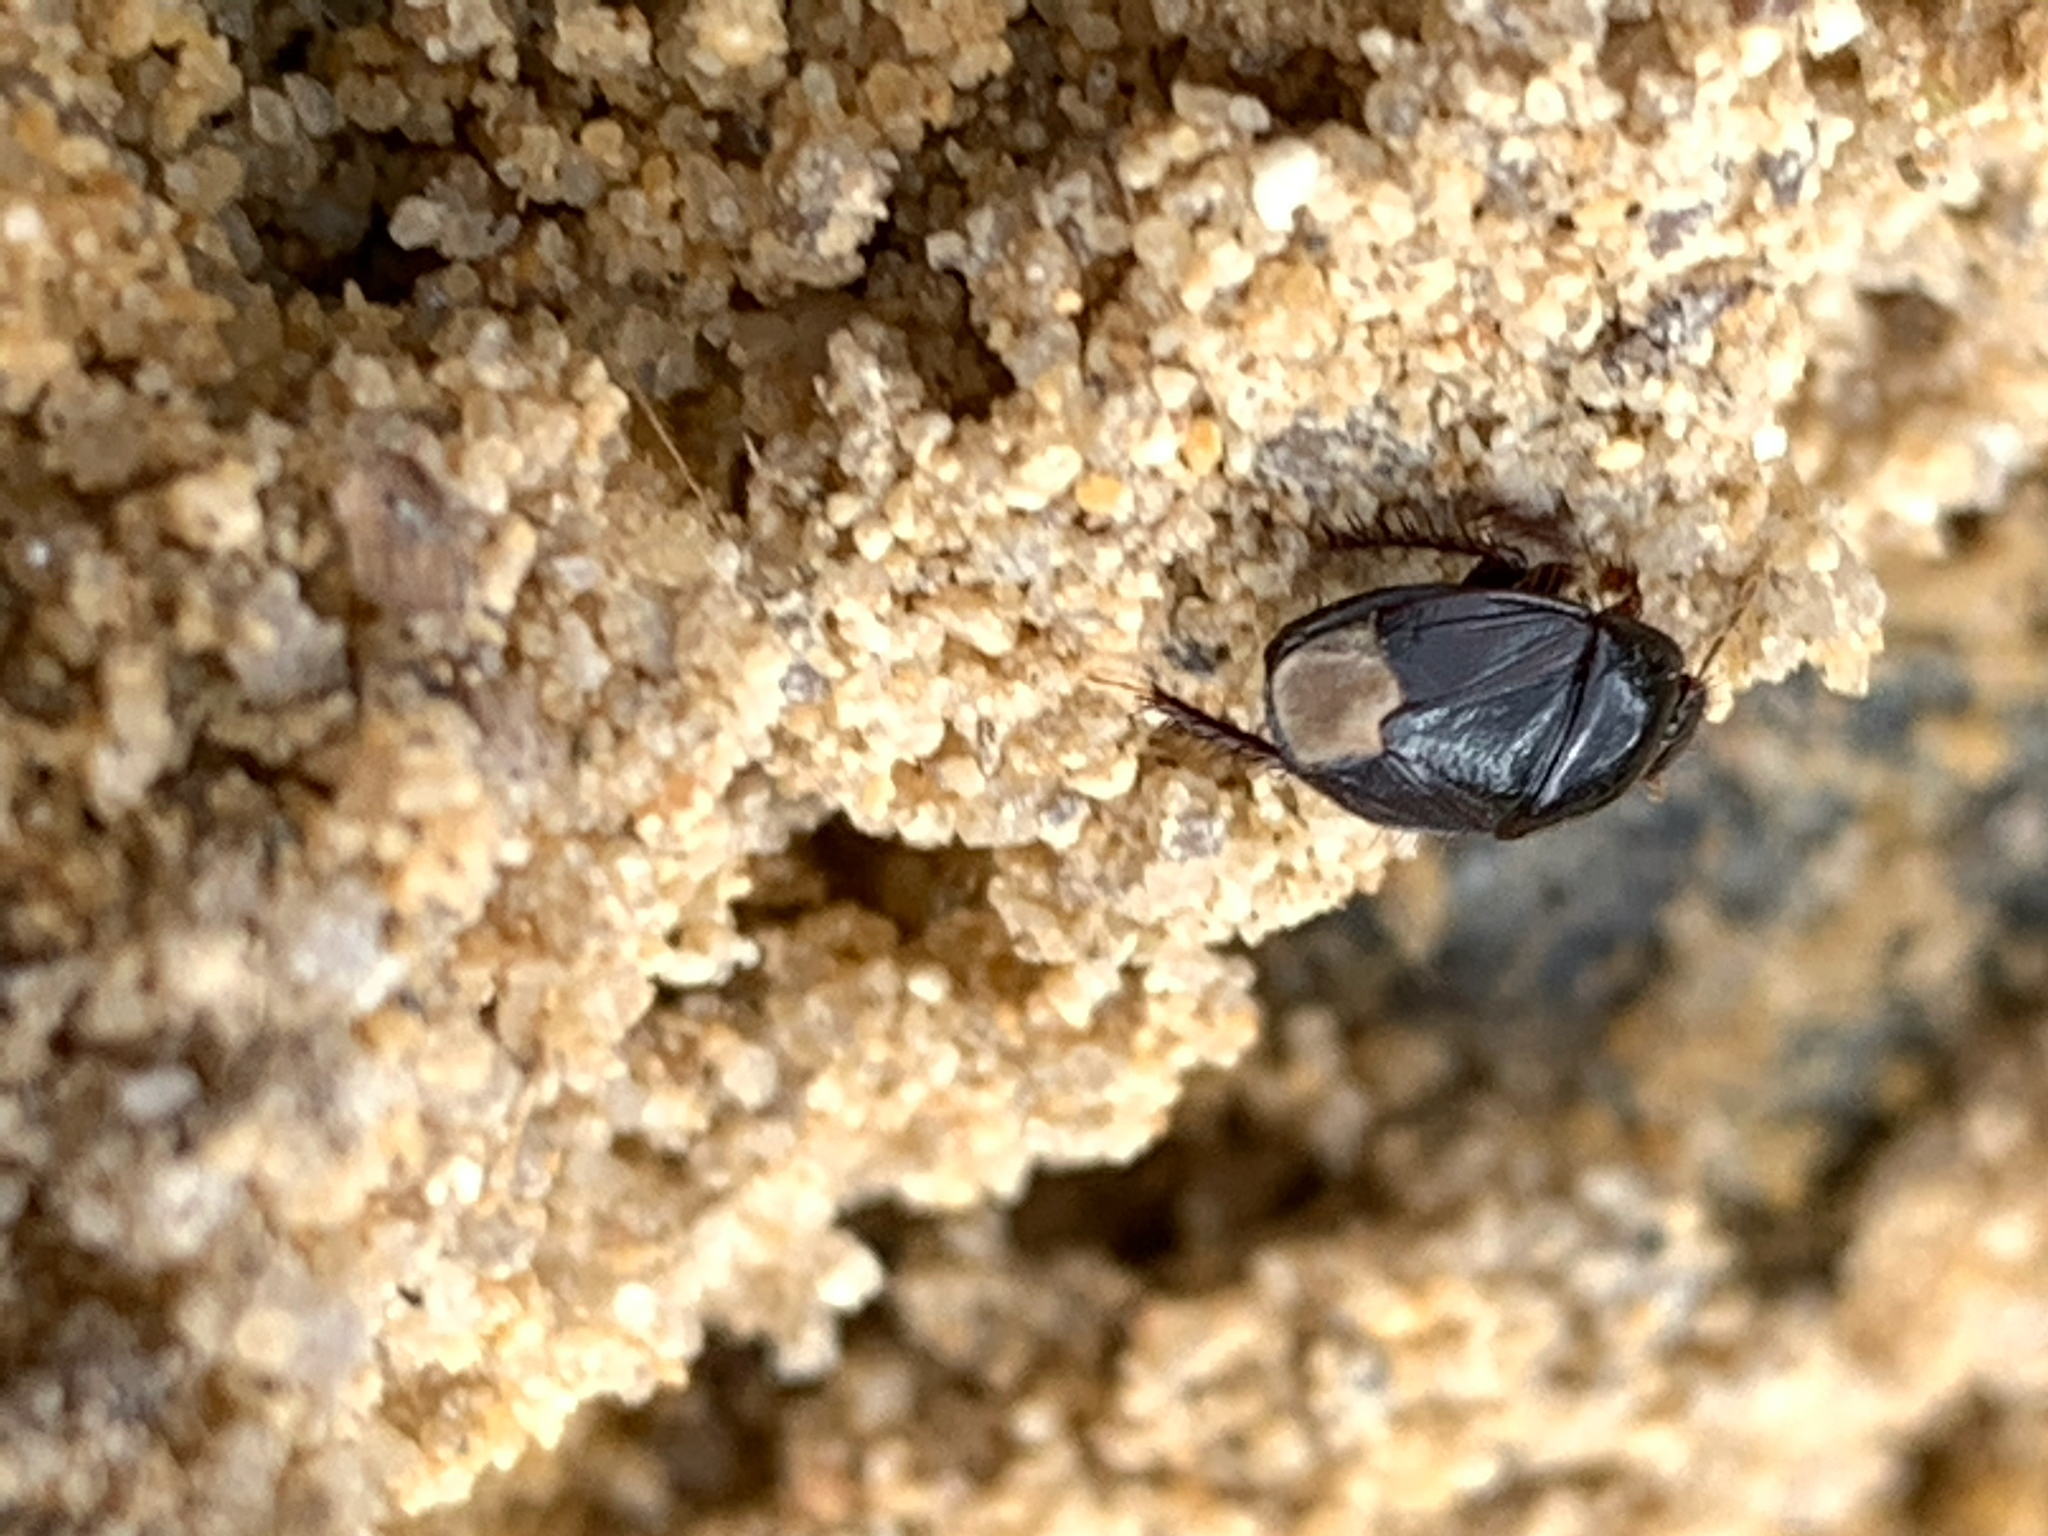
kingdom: Animalia
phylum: Arthropoda
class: Insecta
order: Hemiptera
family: Cydnidae
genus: Pangaeus
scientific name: Pangaeus bilineatus
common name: Burrower bug
